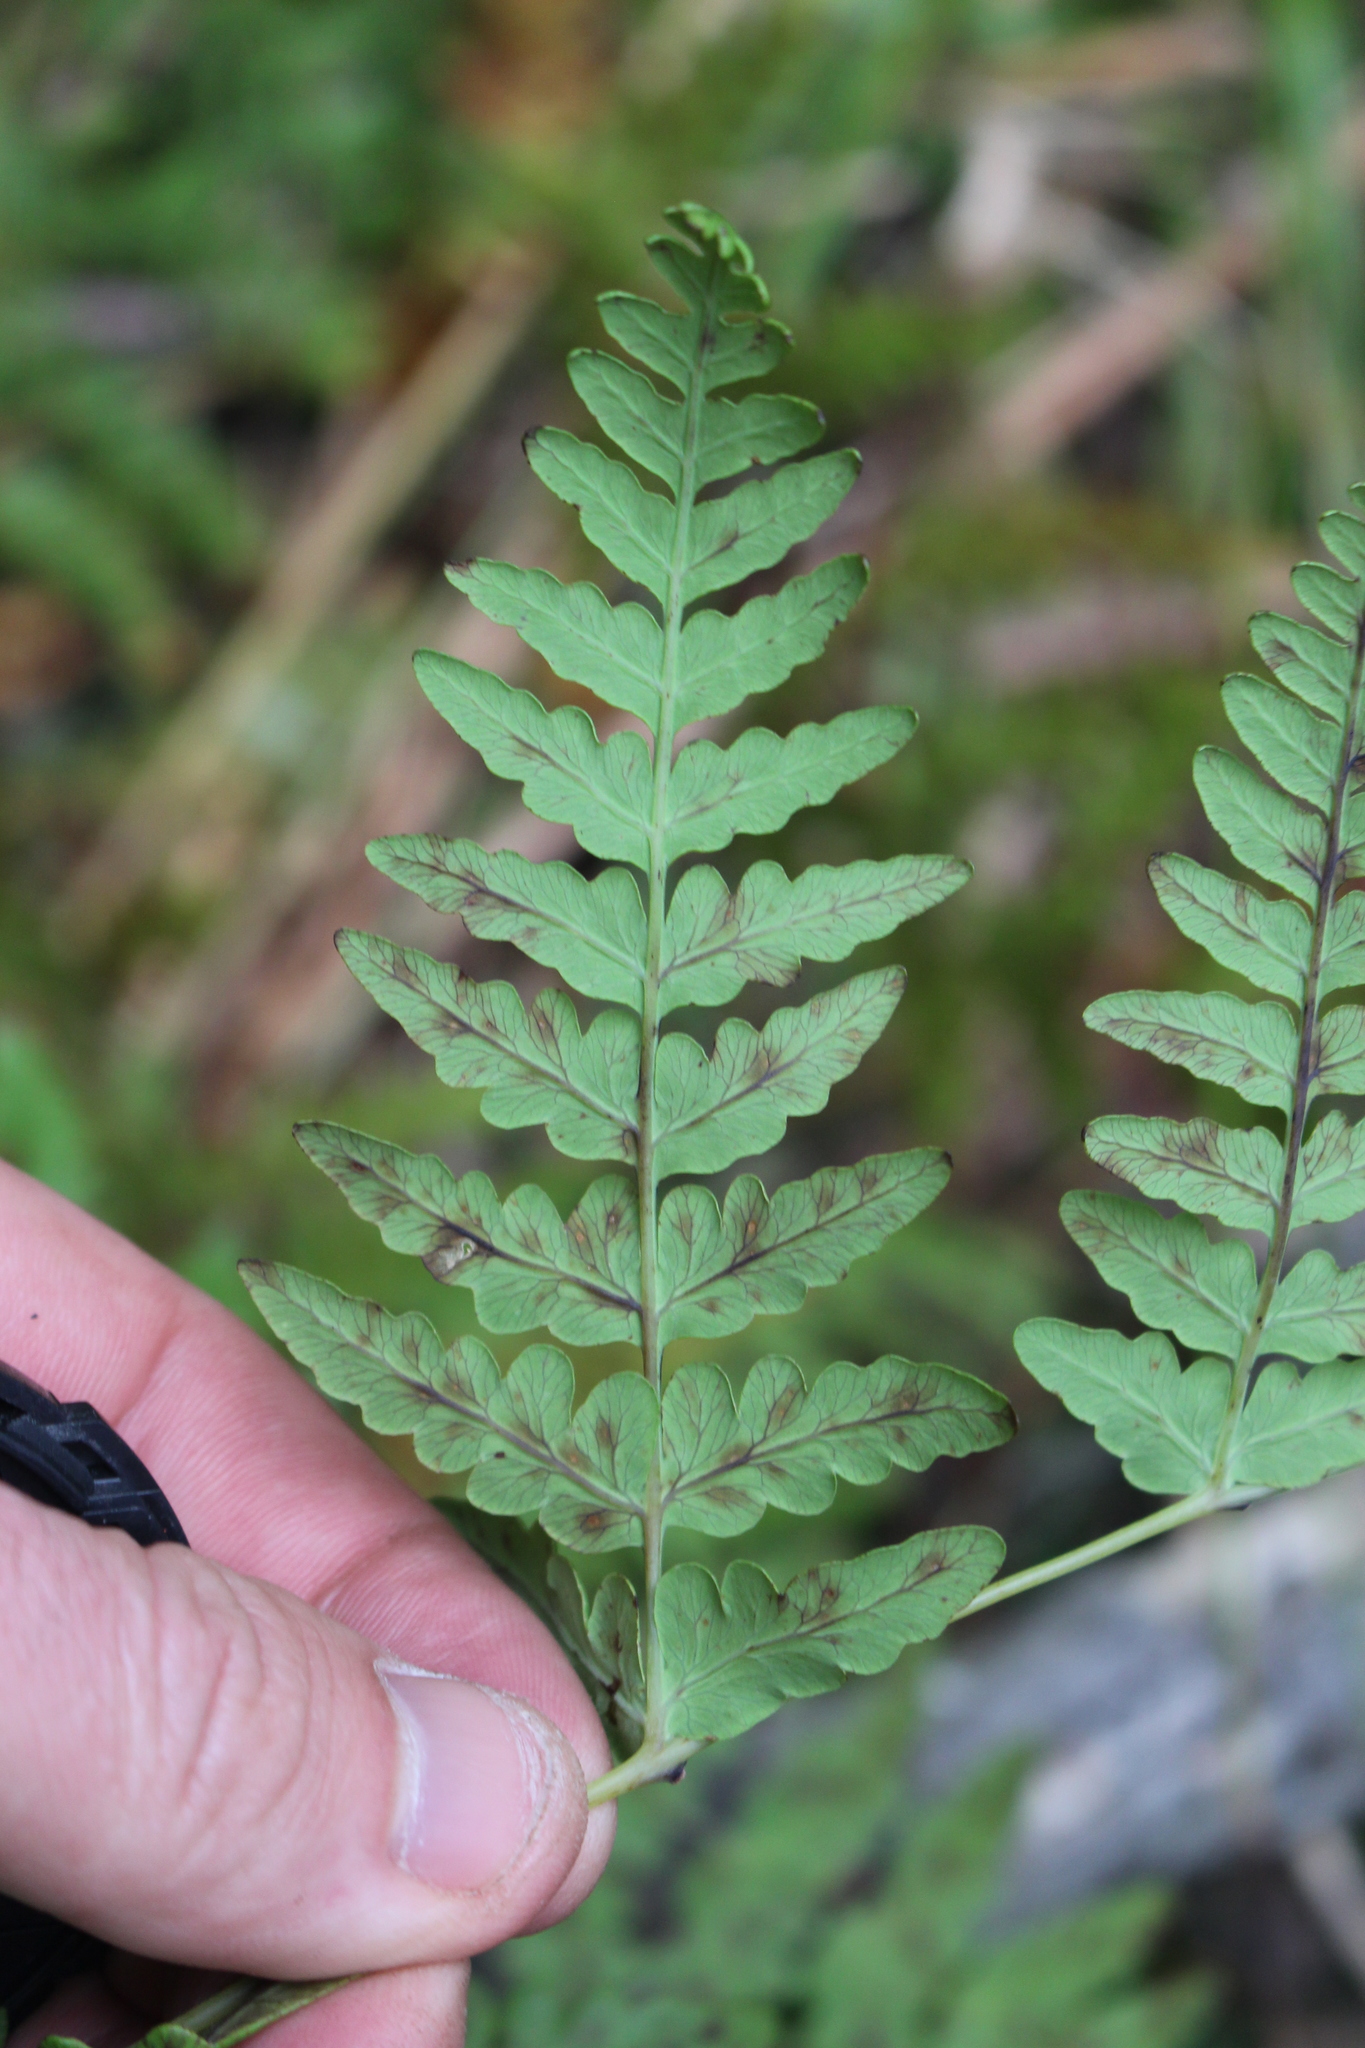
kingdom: Plantae
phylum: Tracheophyta
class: Polypodiopsida
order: Polypodiales
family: Dennstaedtiaceae
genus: Histiopteris
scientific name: Histiopteris incisa
